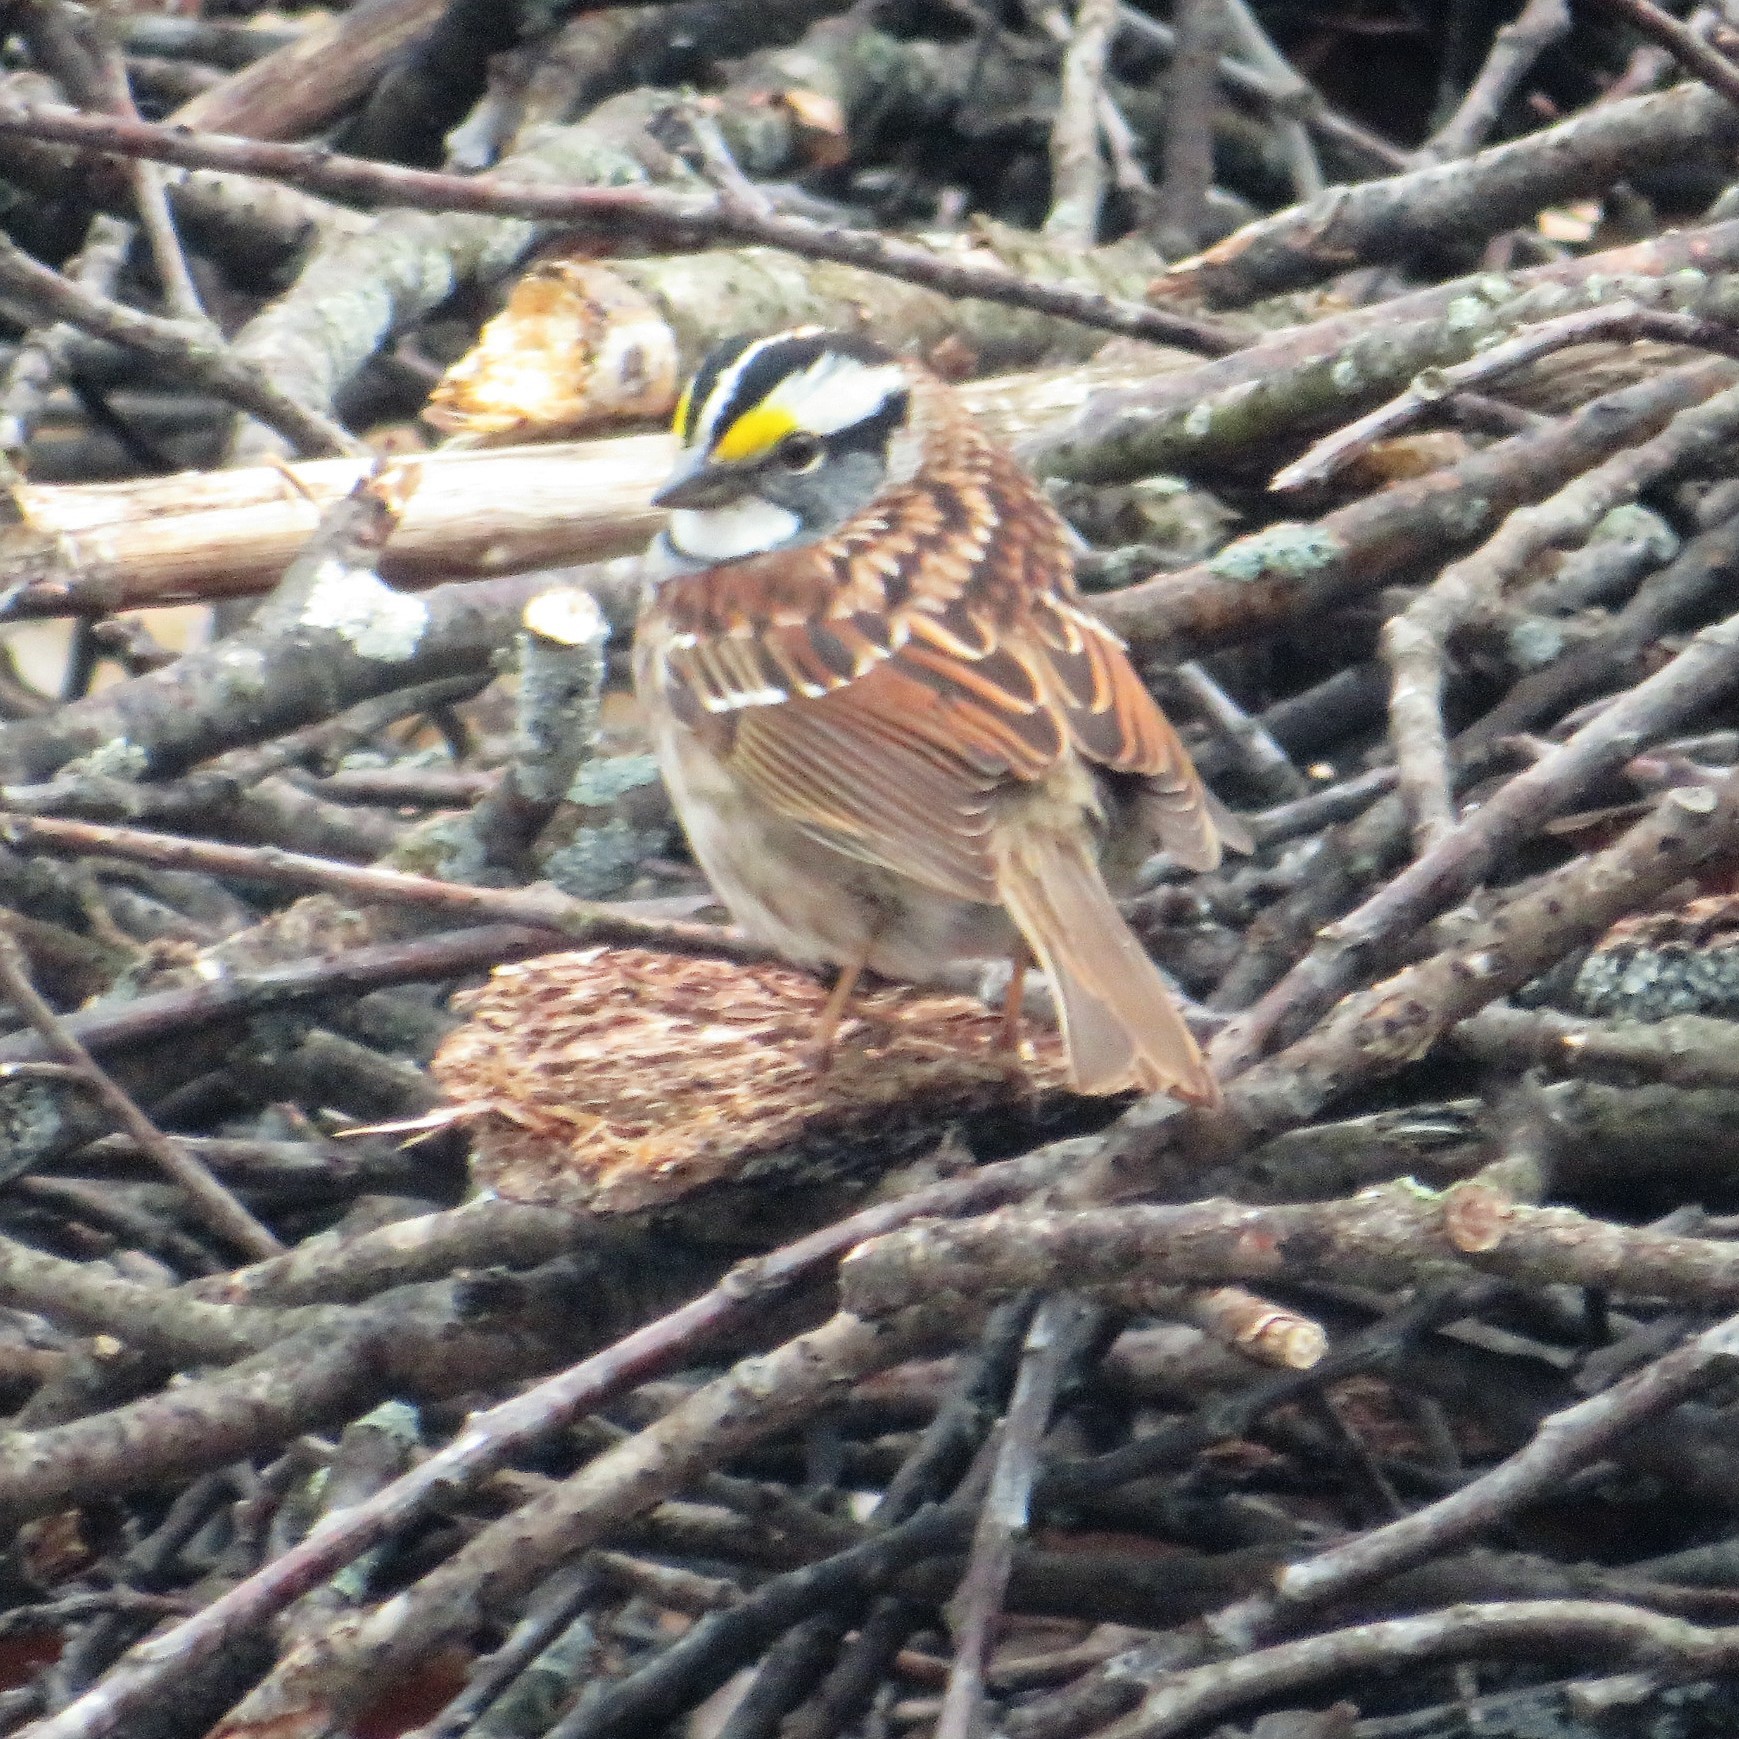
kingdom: Animalia
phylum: Chordata
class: Aves
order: Passeriformes
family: Passerellidae
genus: Zonotrichia
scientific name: Zonotrichia albicollis
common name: White-throated sparrow
